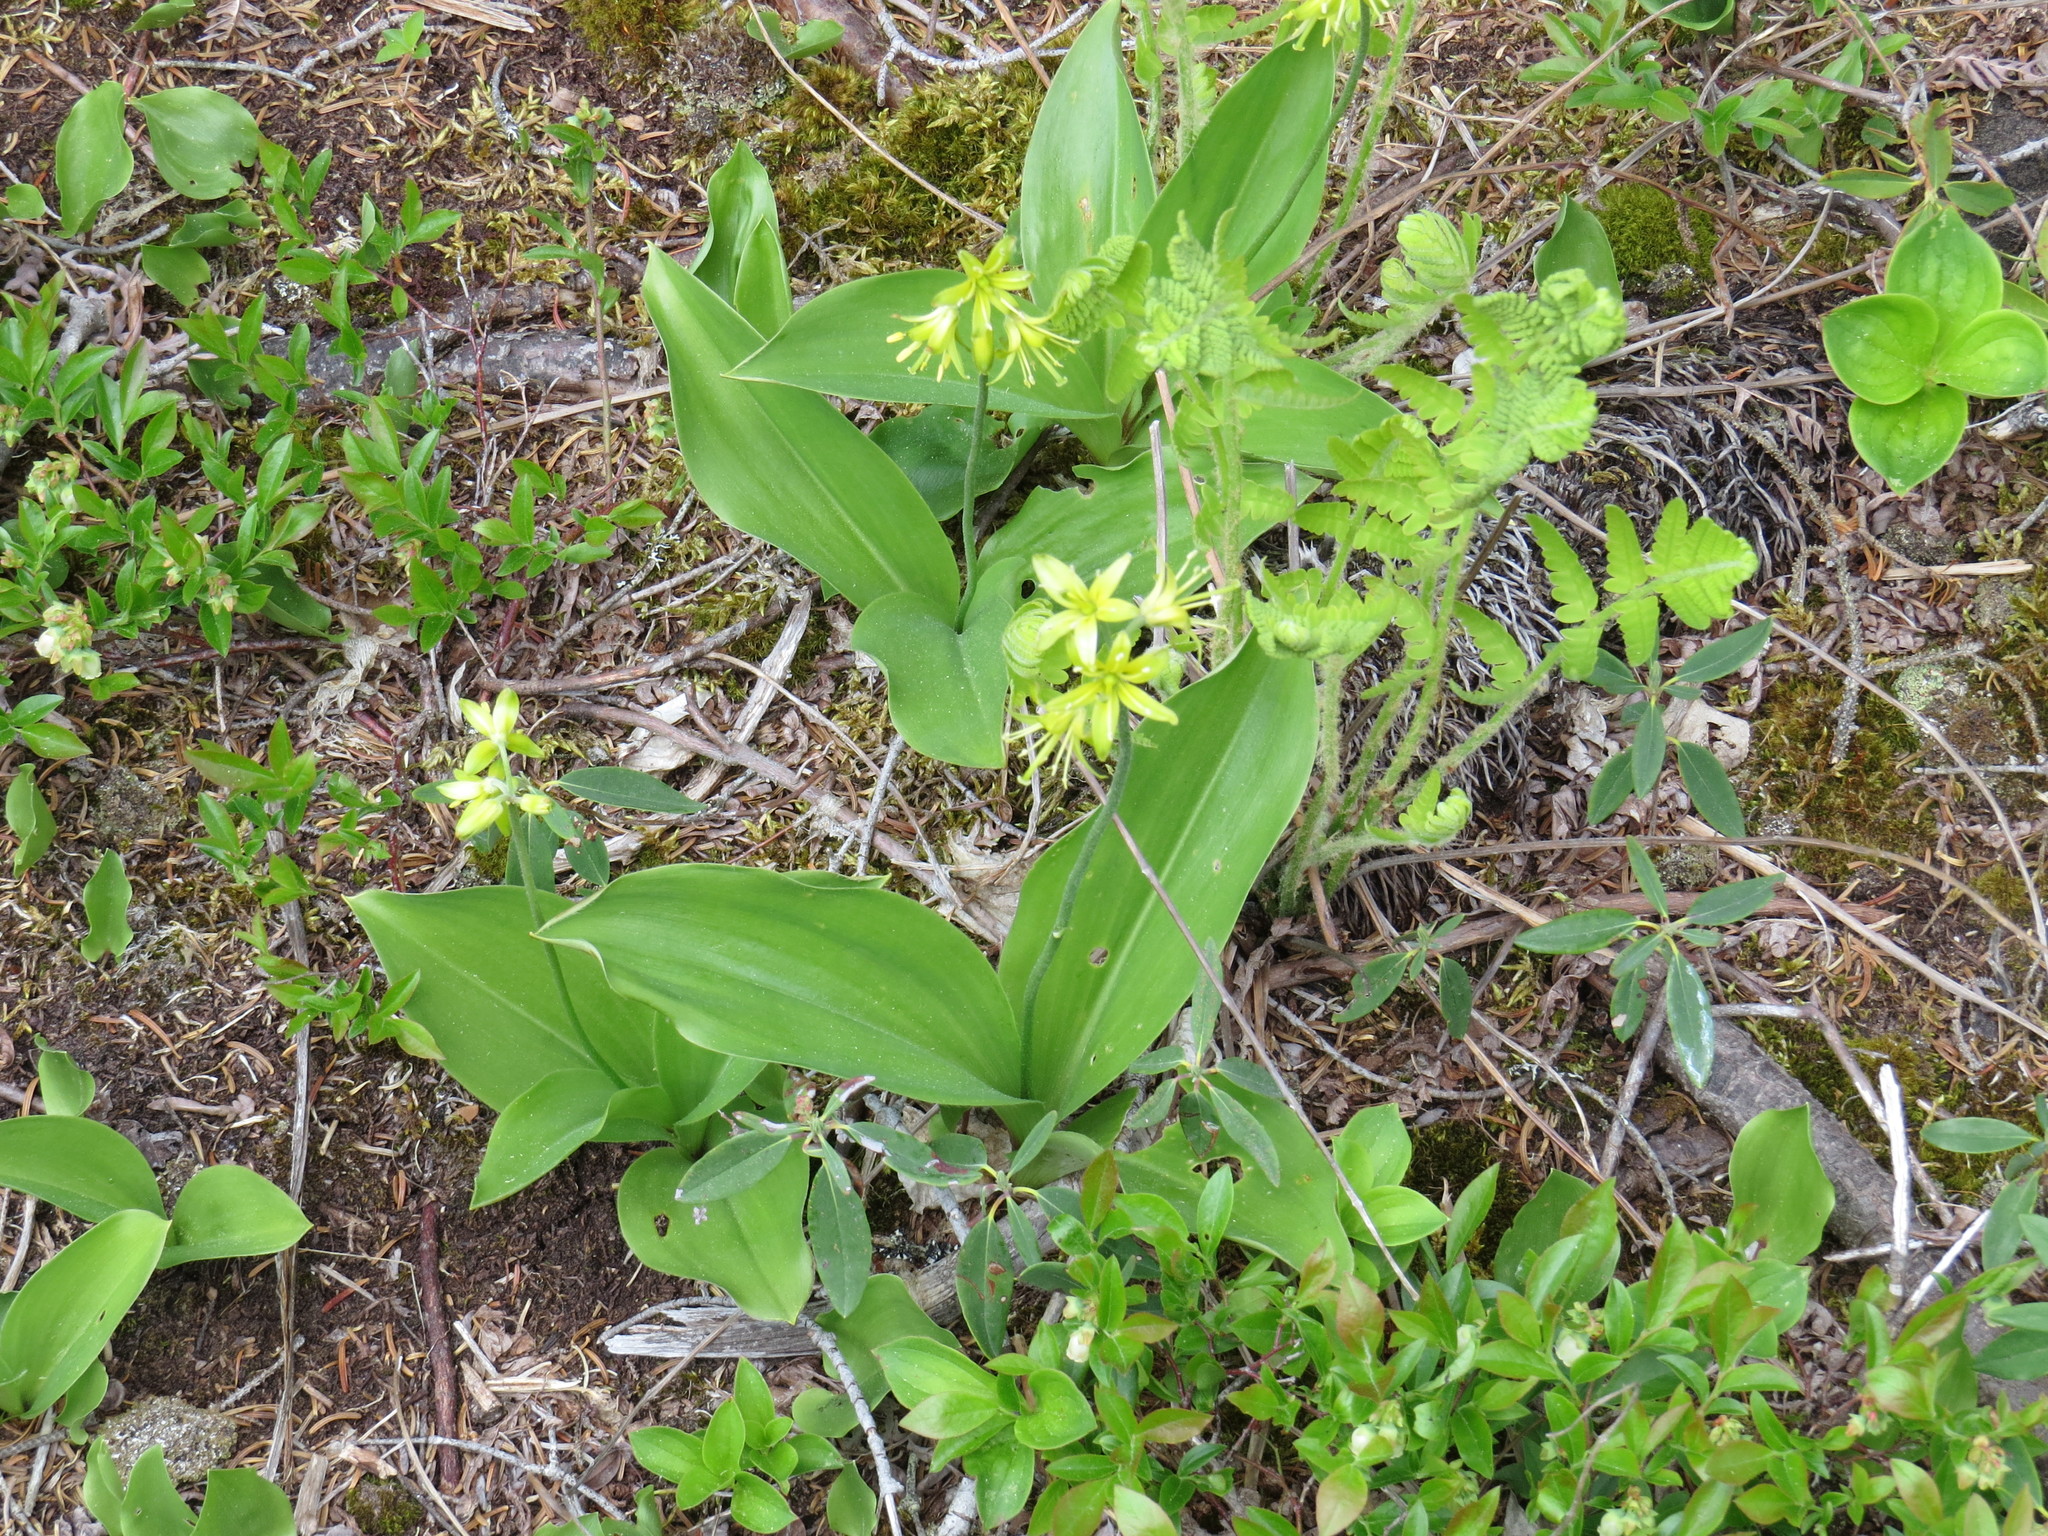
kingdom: Plantae
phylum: Tracheophyta
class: Liliopsida
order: Liliales
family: Liliaceae
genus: Clintonia
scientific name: Clintonia borealis
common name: Yellow clintonia
